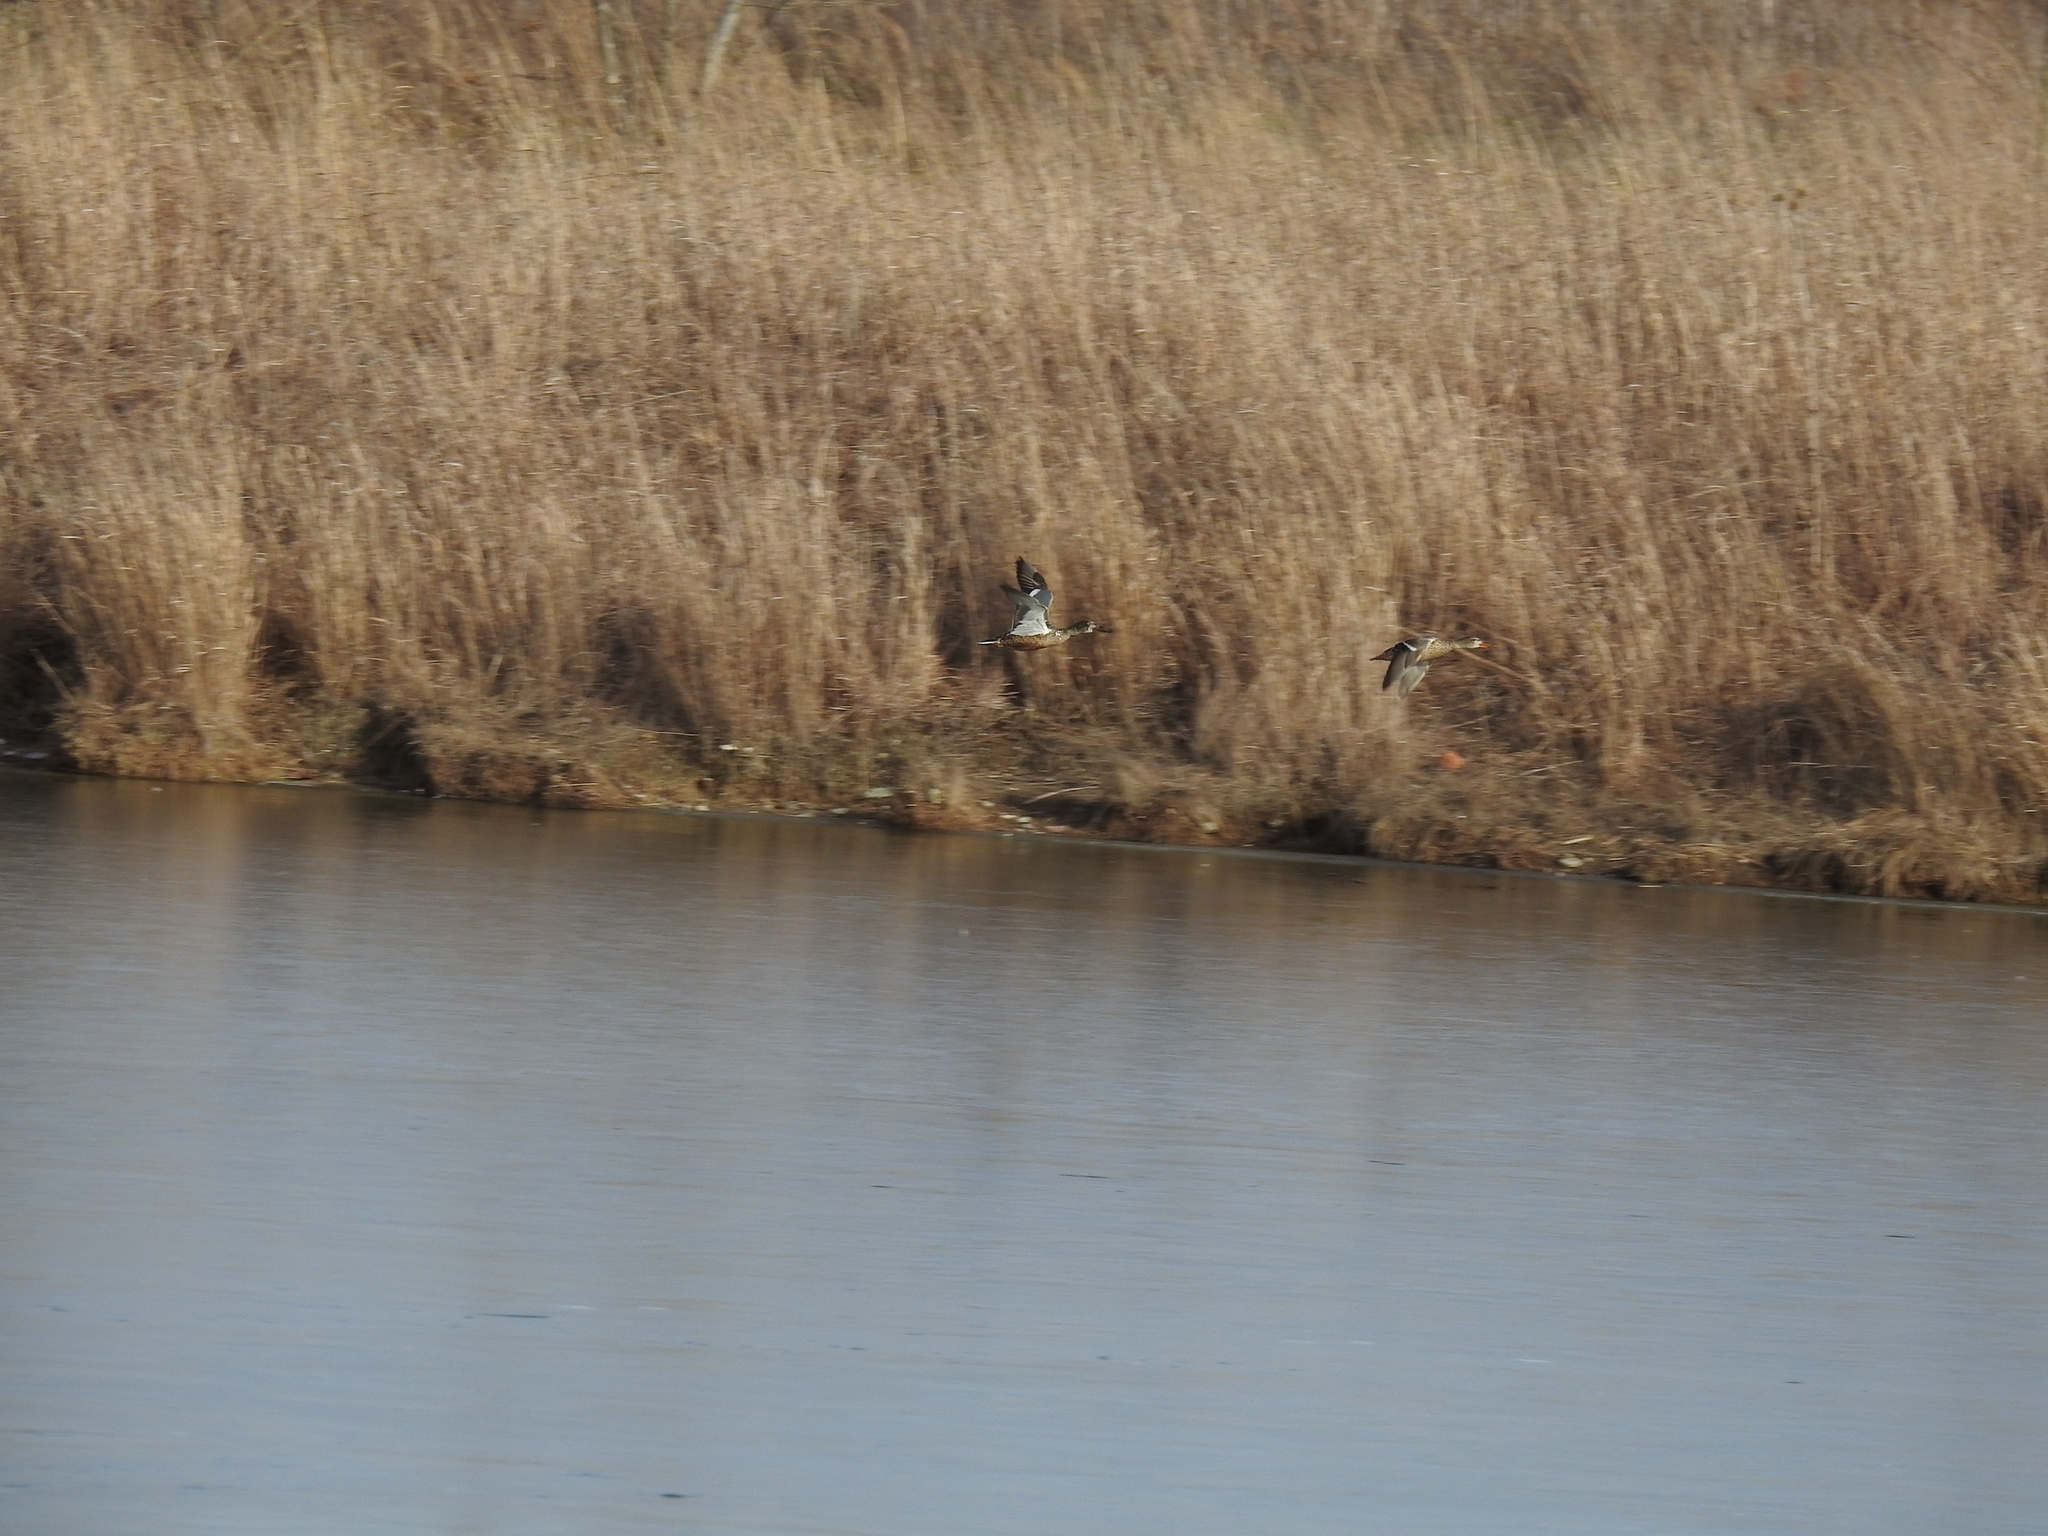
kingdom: Animalia
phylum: Chordata
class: Aves
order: Anseriformes
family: Anatidae
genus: Spatula
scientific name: Spatula clypeata
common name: Northern shoveler
